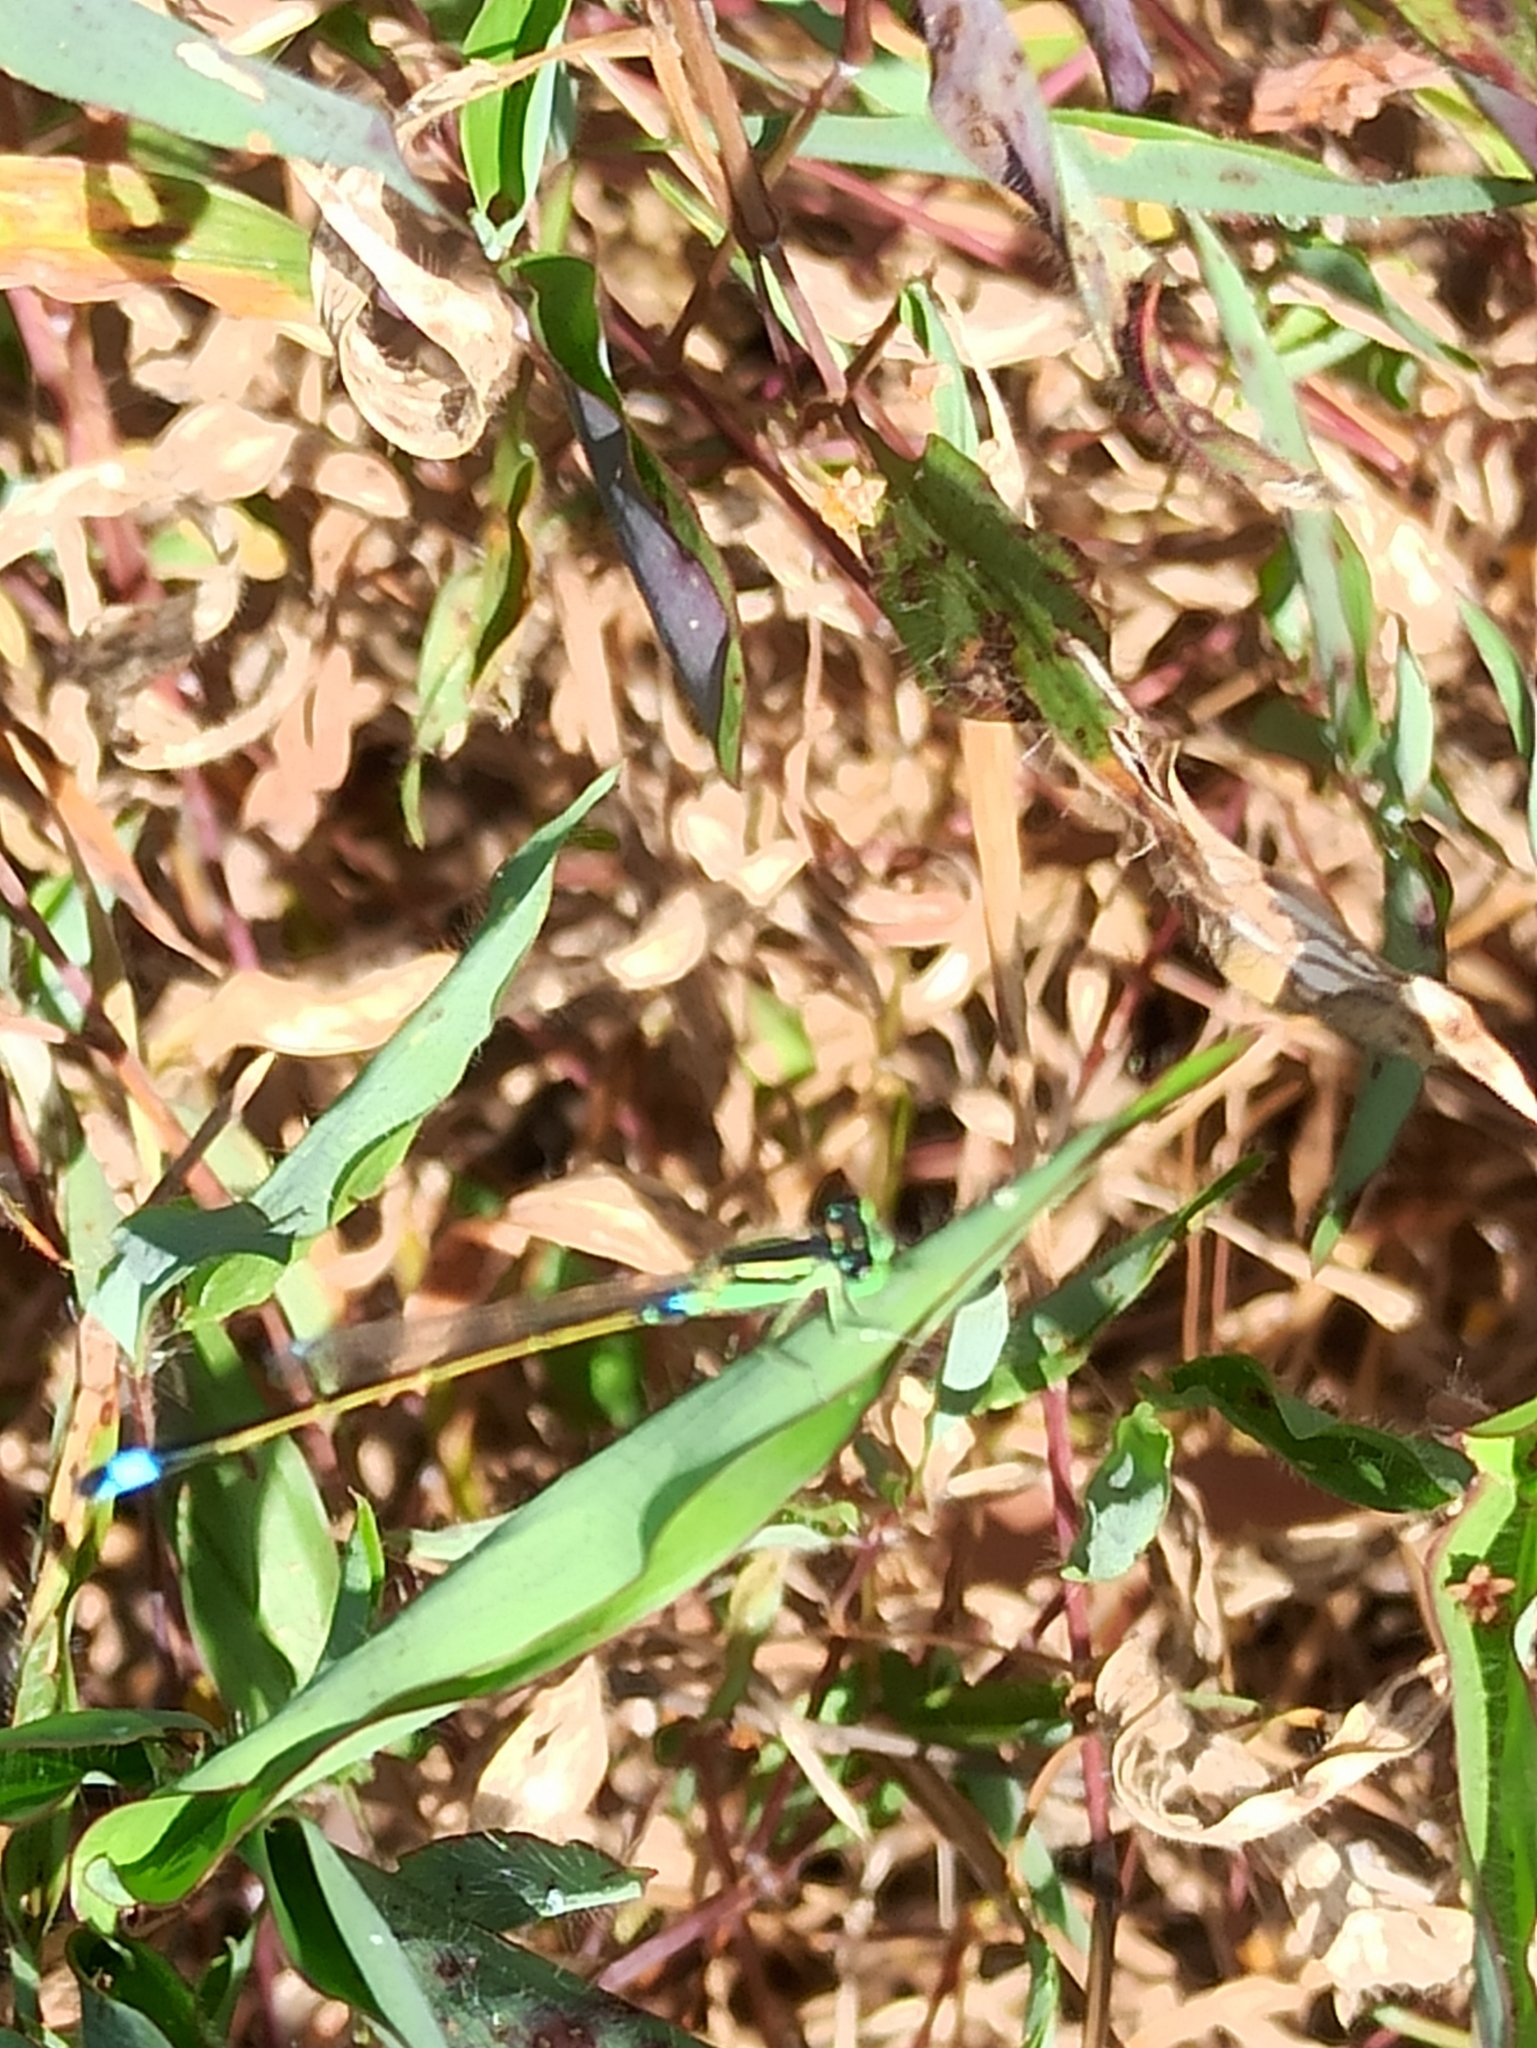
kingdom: Animalia
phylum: Arthropoda
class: Insecta
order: Odonata
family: Coenagrionidae
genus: Ischnura
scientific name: Ischnura senegalensis
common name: Tropical bluetail
